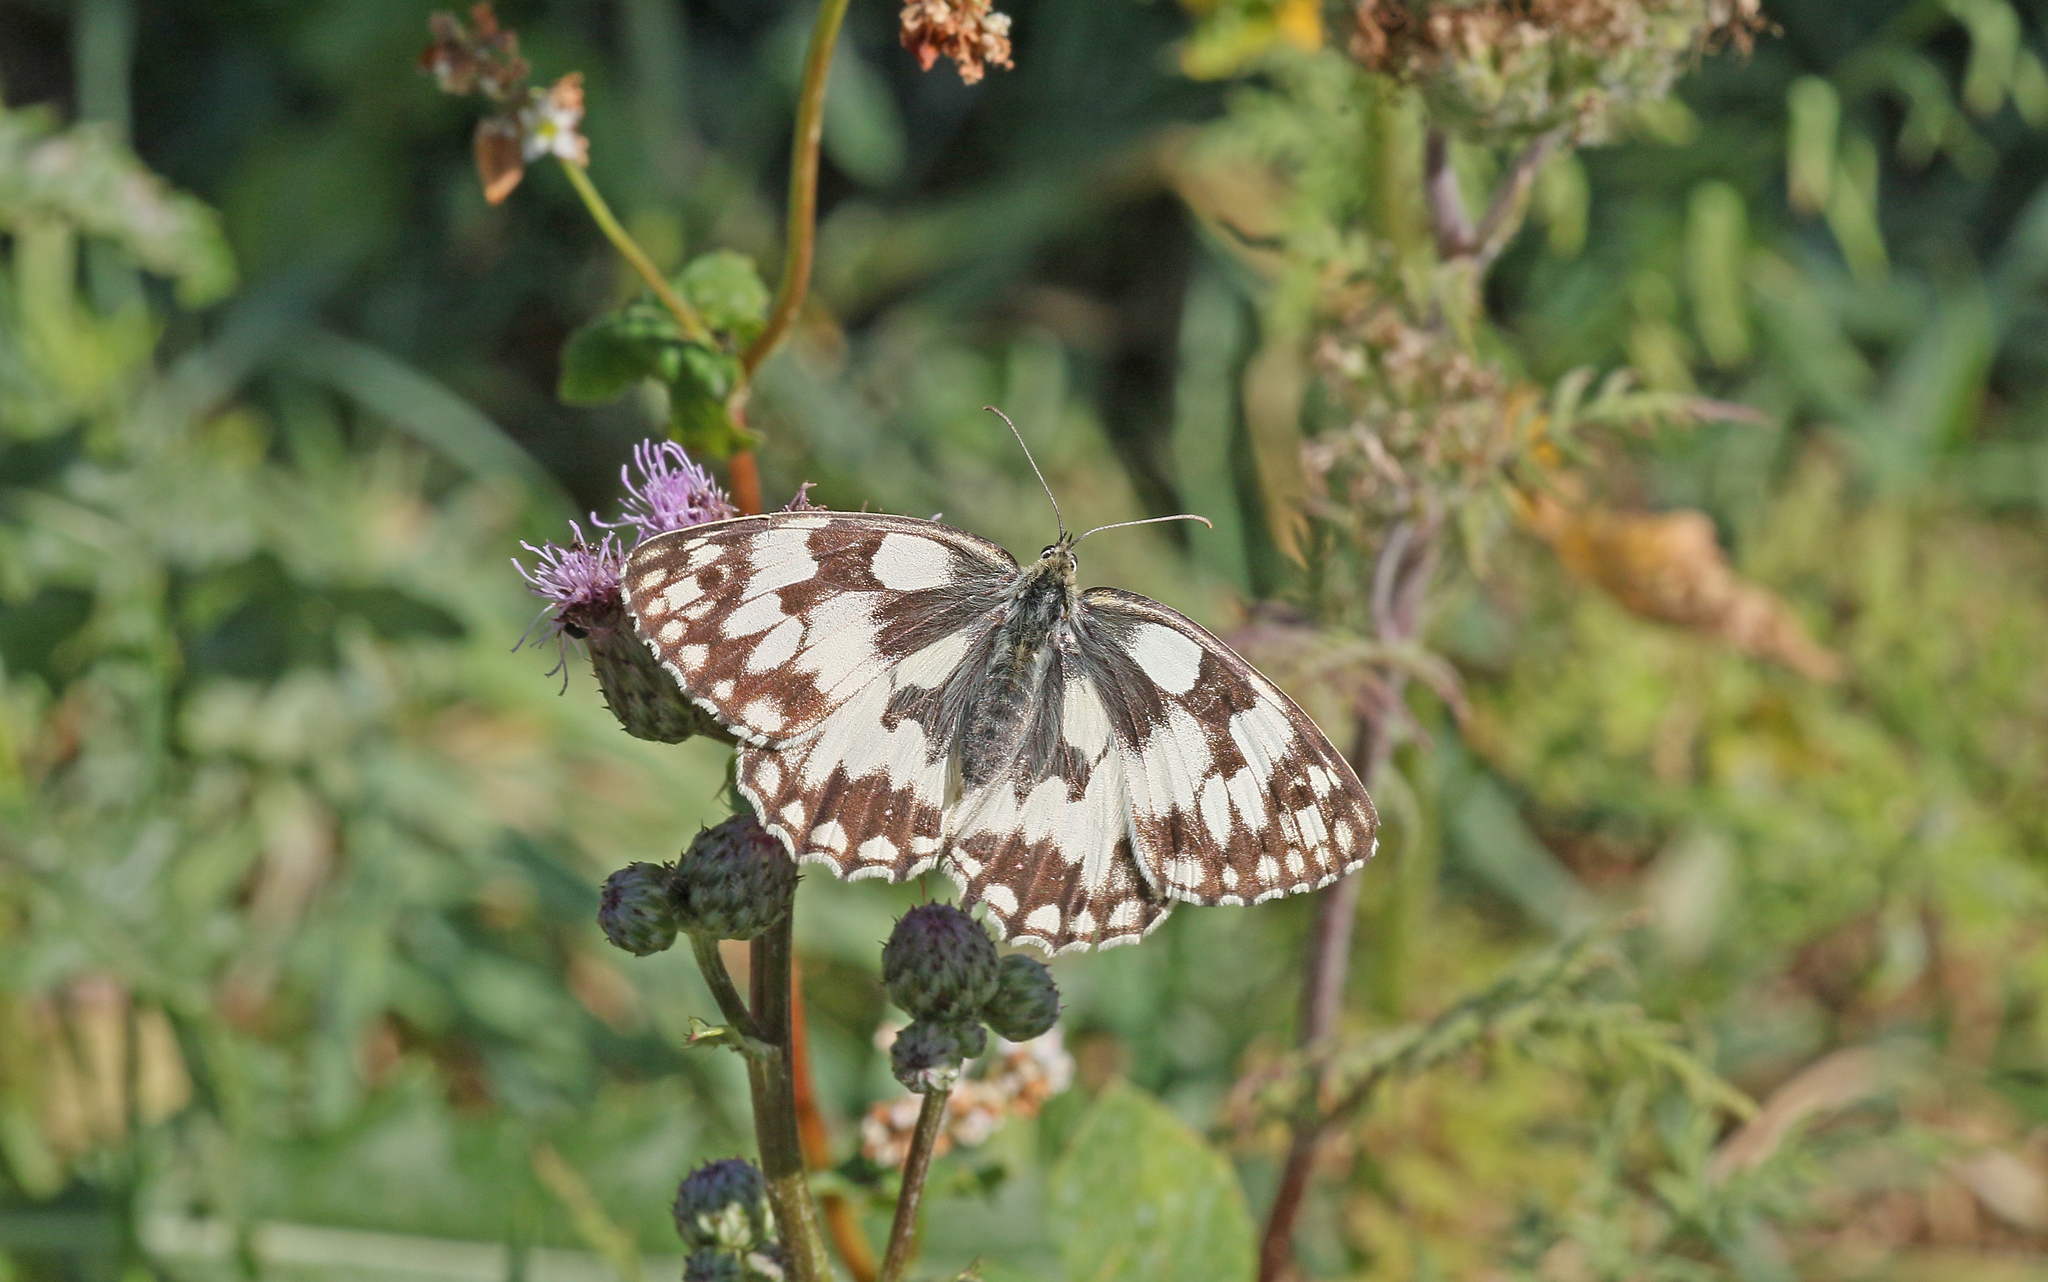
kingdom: Animalia
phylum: Arthropoda
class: Insecta
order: Lepidoptera
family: Nymphalidae
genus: Melanargia
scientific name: Melanargia galathea
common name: Marbled white
